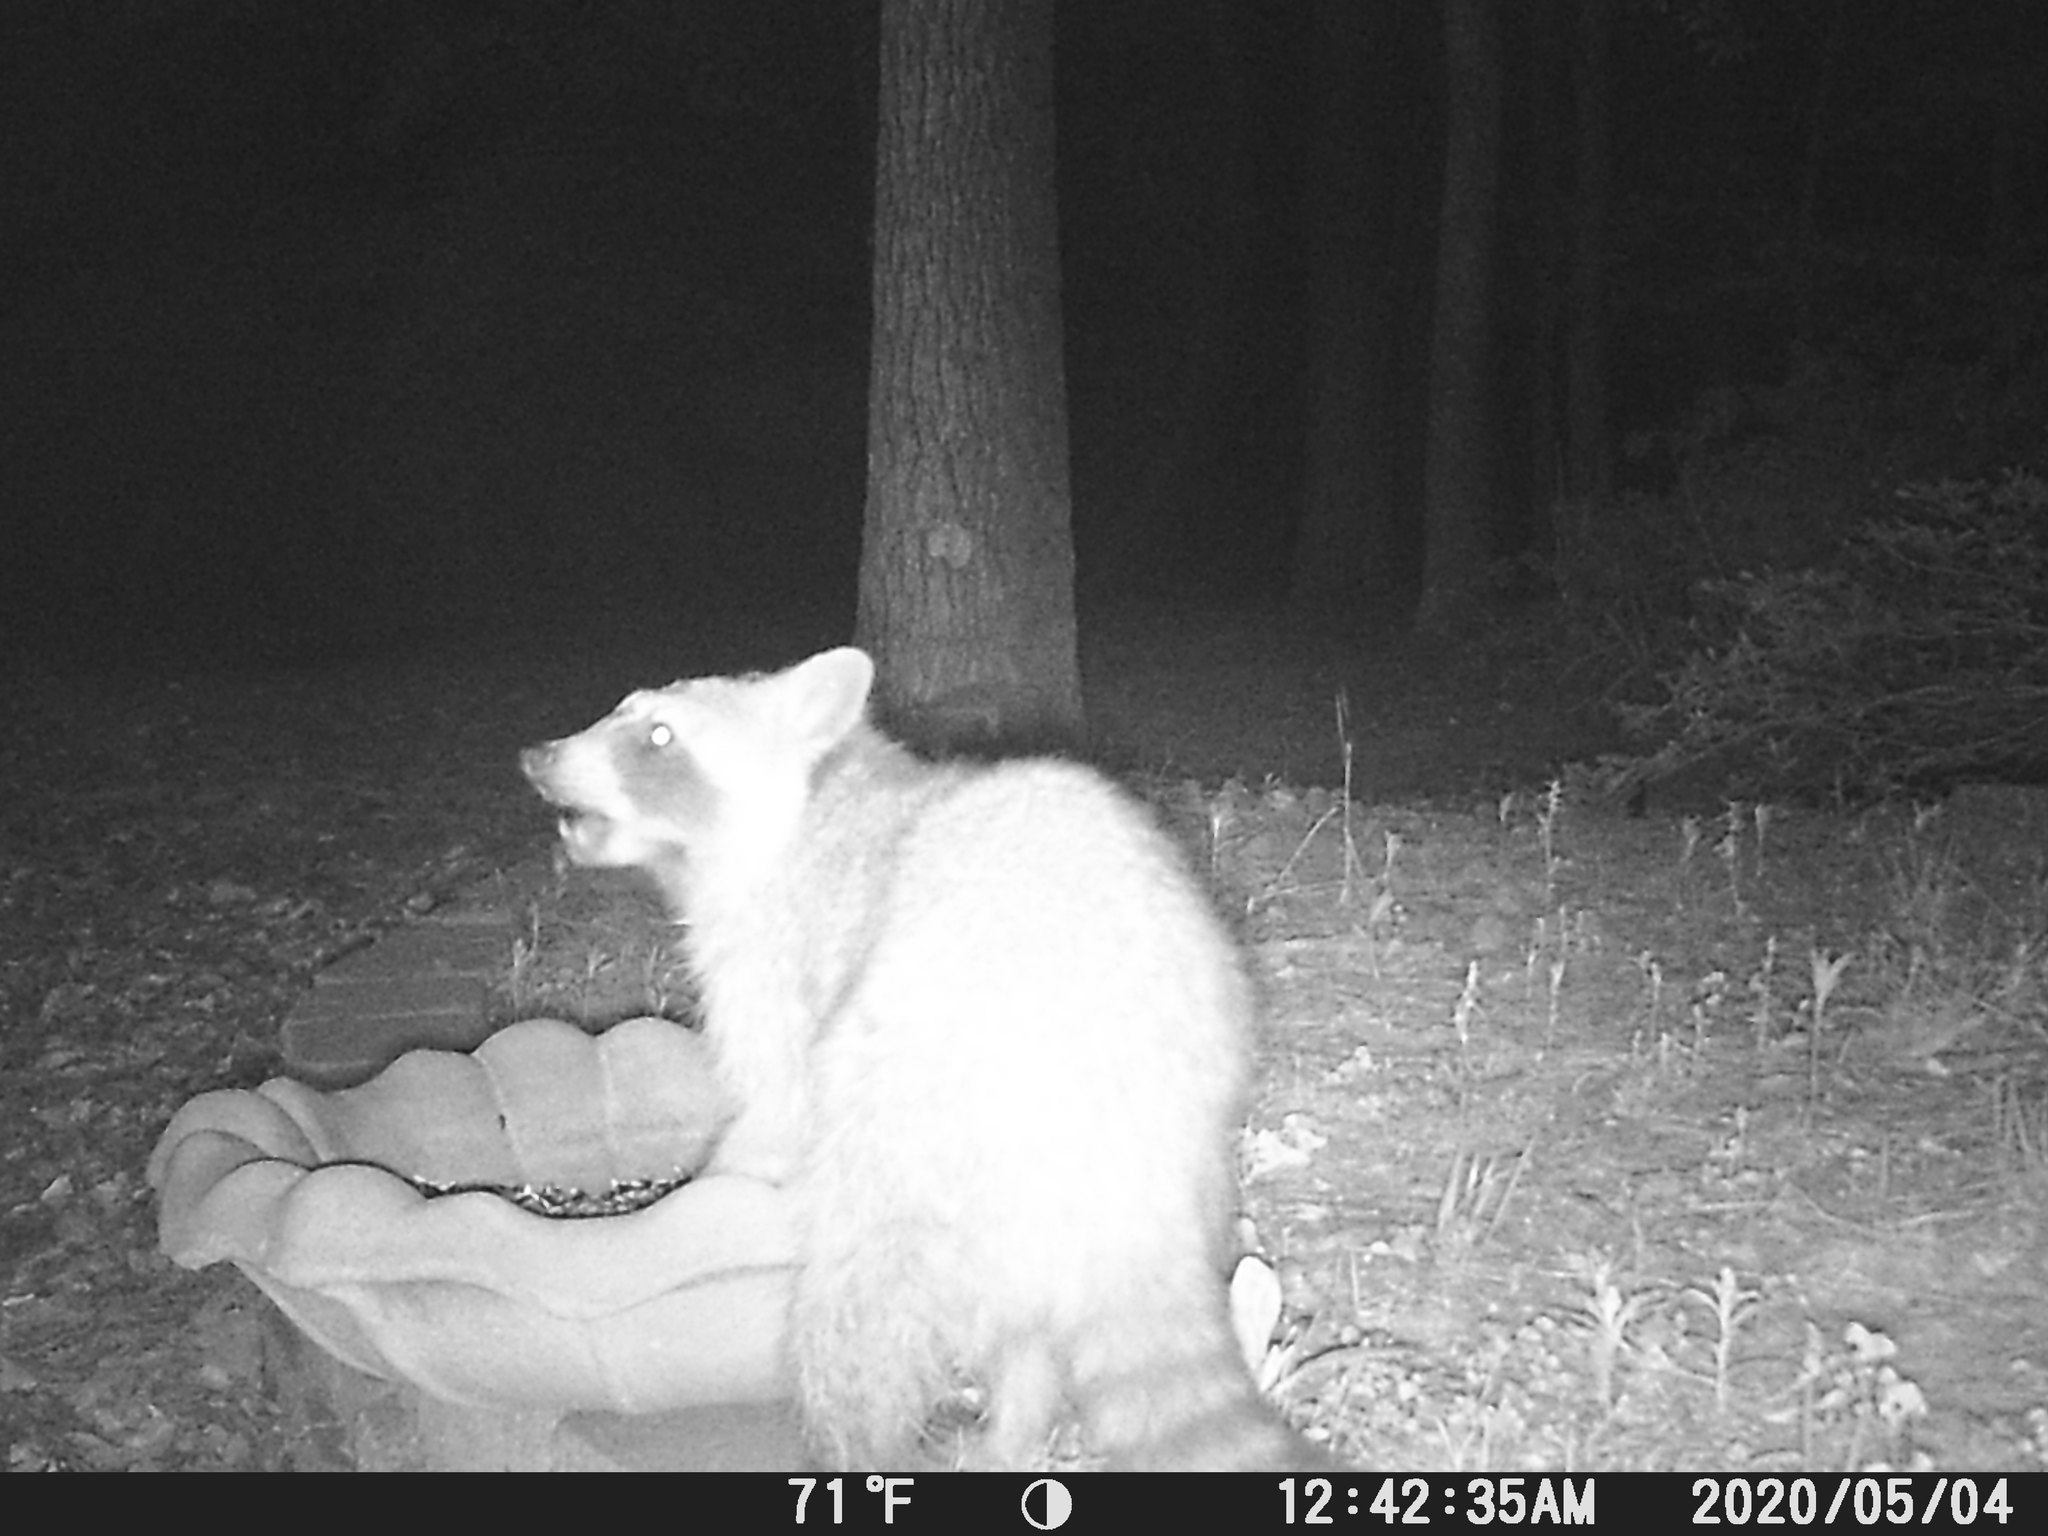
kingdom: Animalia
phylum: Chordata
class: Mammalia
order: Carnivora
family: Procyonidae
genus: Procyon
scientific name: Procyon lotor
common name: Raccoon
